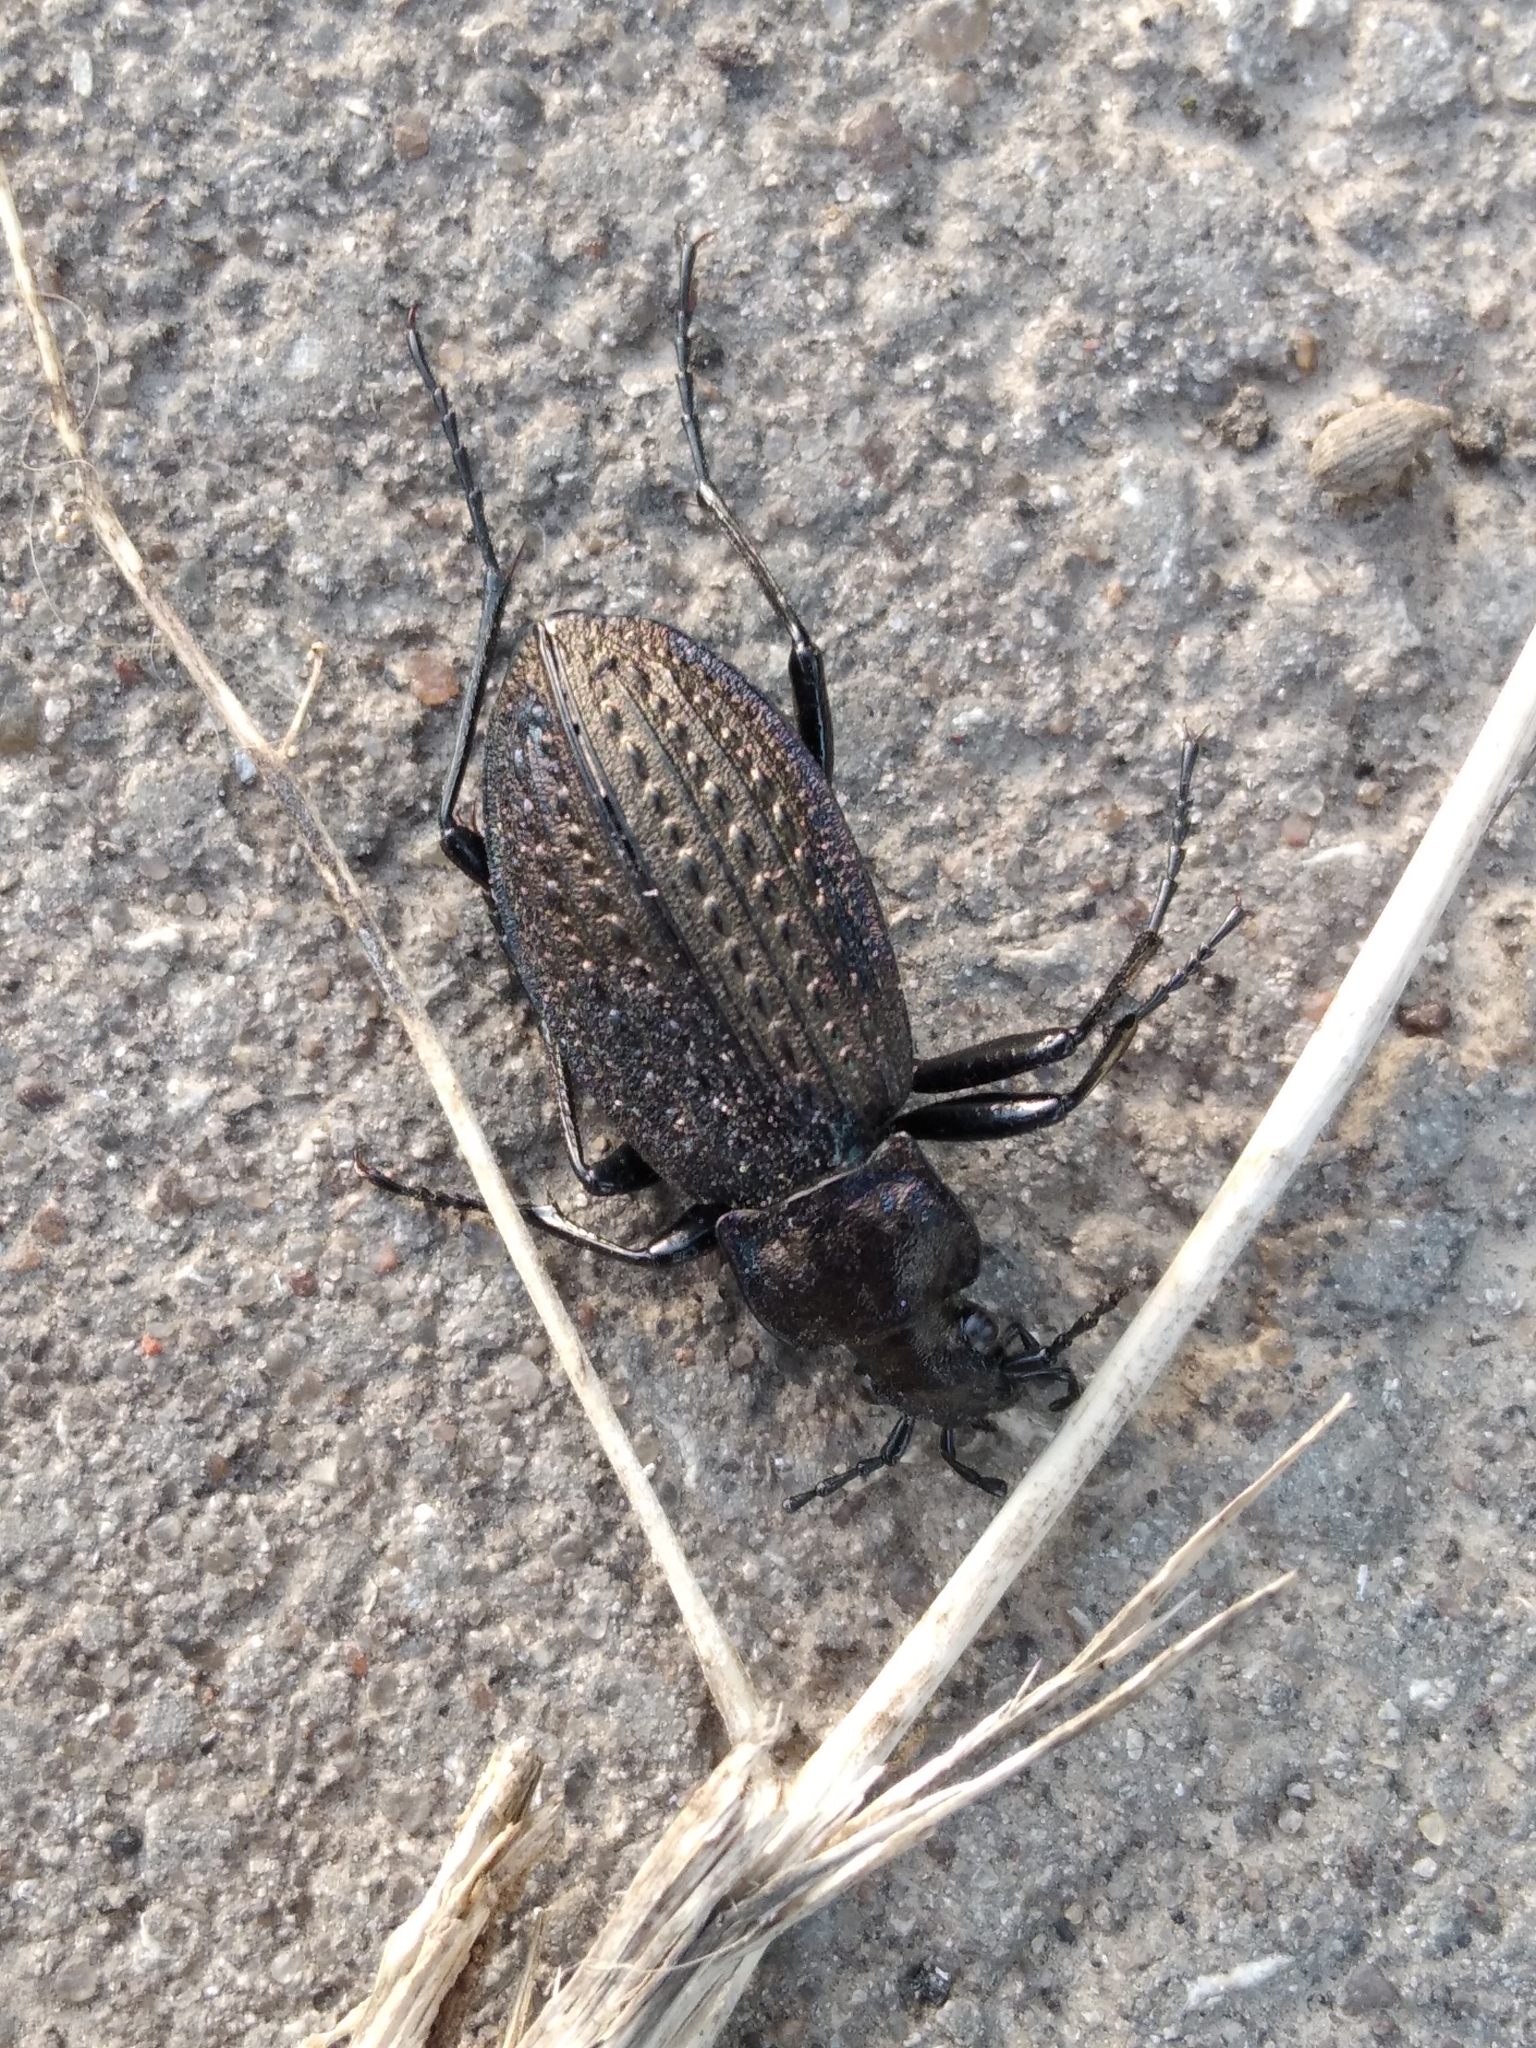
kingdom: Animalia
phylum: Arthropoda
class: Insecta
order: Coleoptera
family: Carabidae
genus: Carabus
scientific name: Carabus granulatus
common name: Granulate ground beetle
